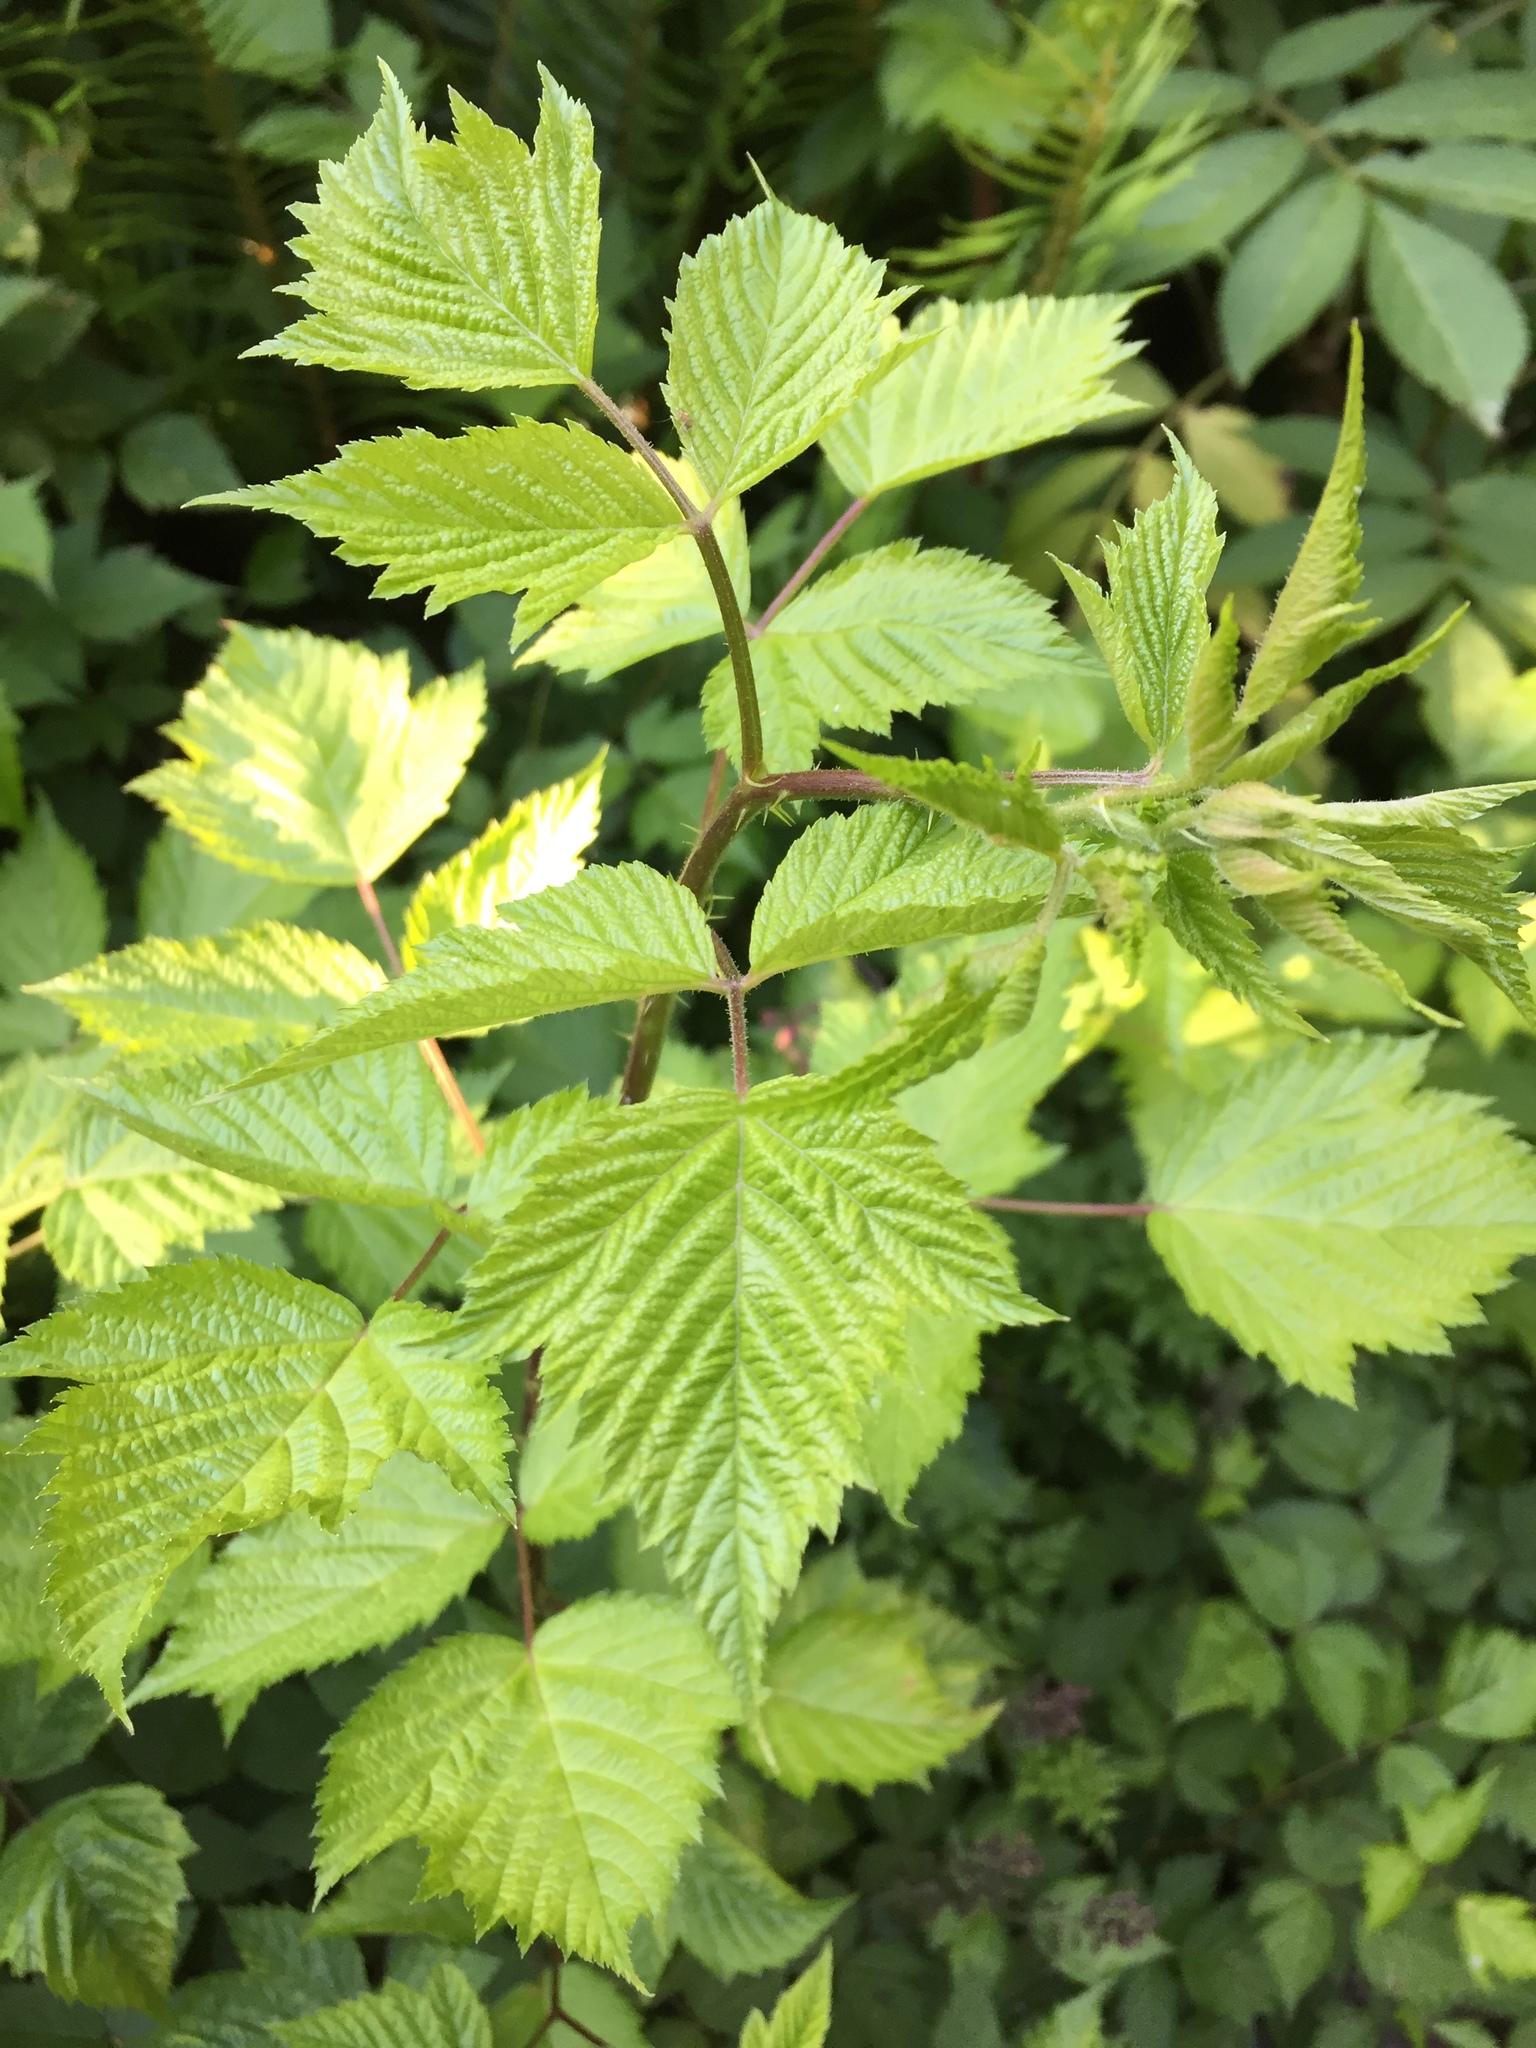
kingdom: Plantae
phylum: Tracheophyta
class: Magnoliopsida
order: Rosales
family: Rosaceae
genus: Rubus
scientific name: Rubus spectabilis
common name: Salmonberry
